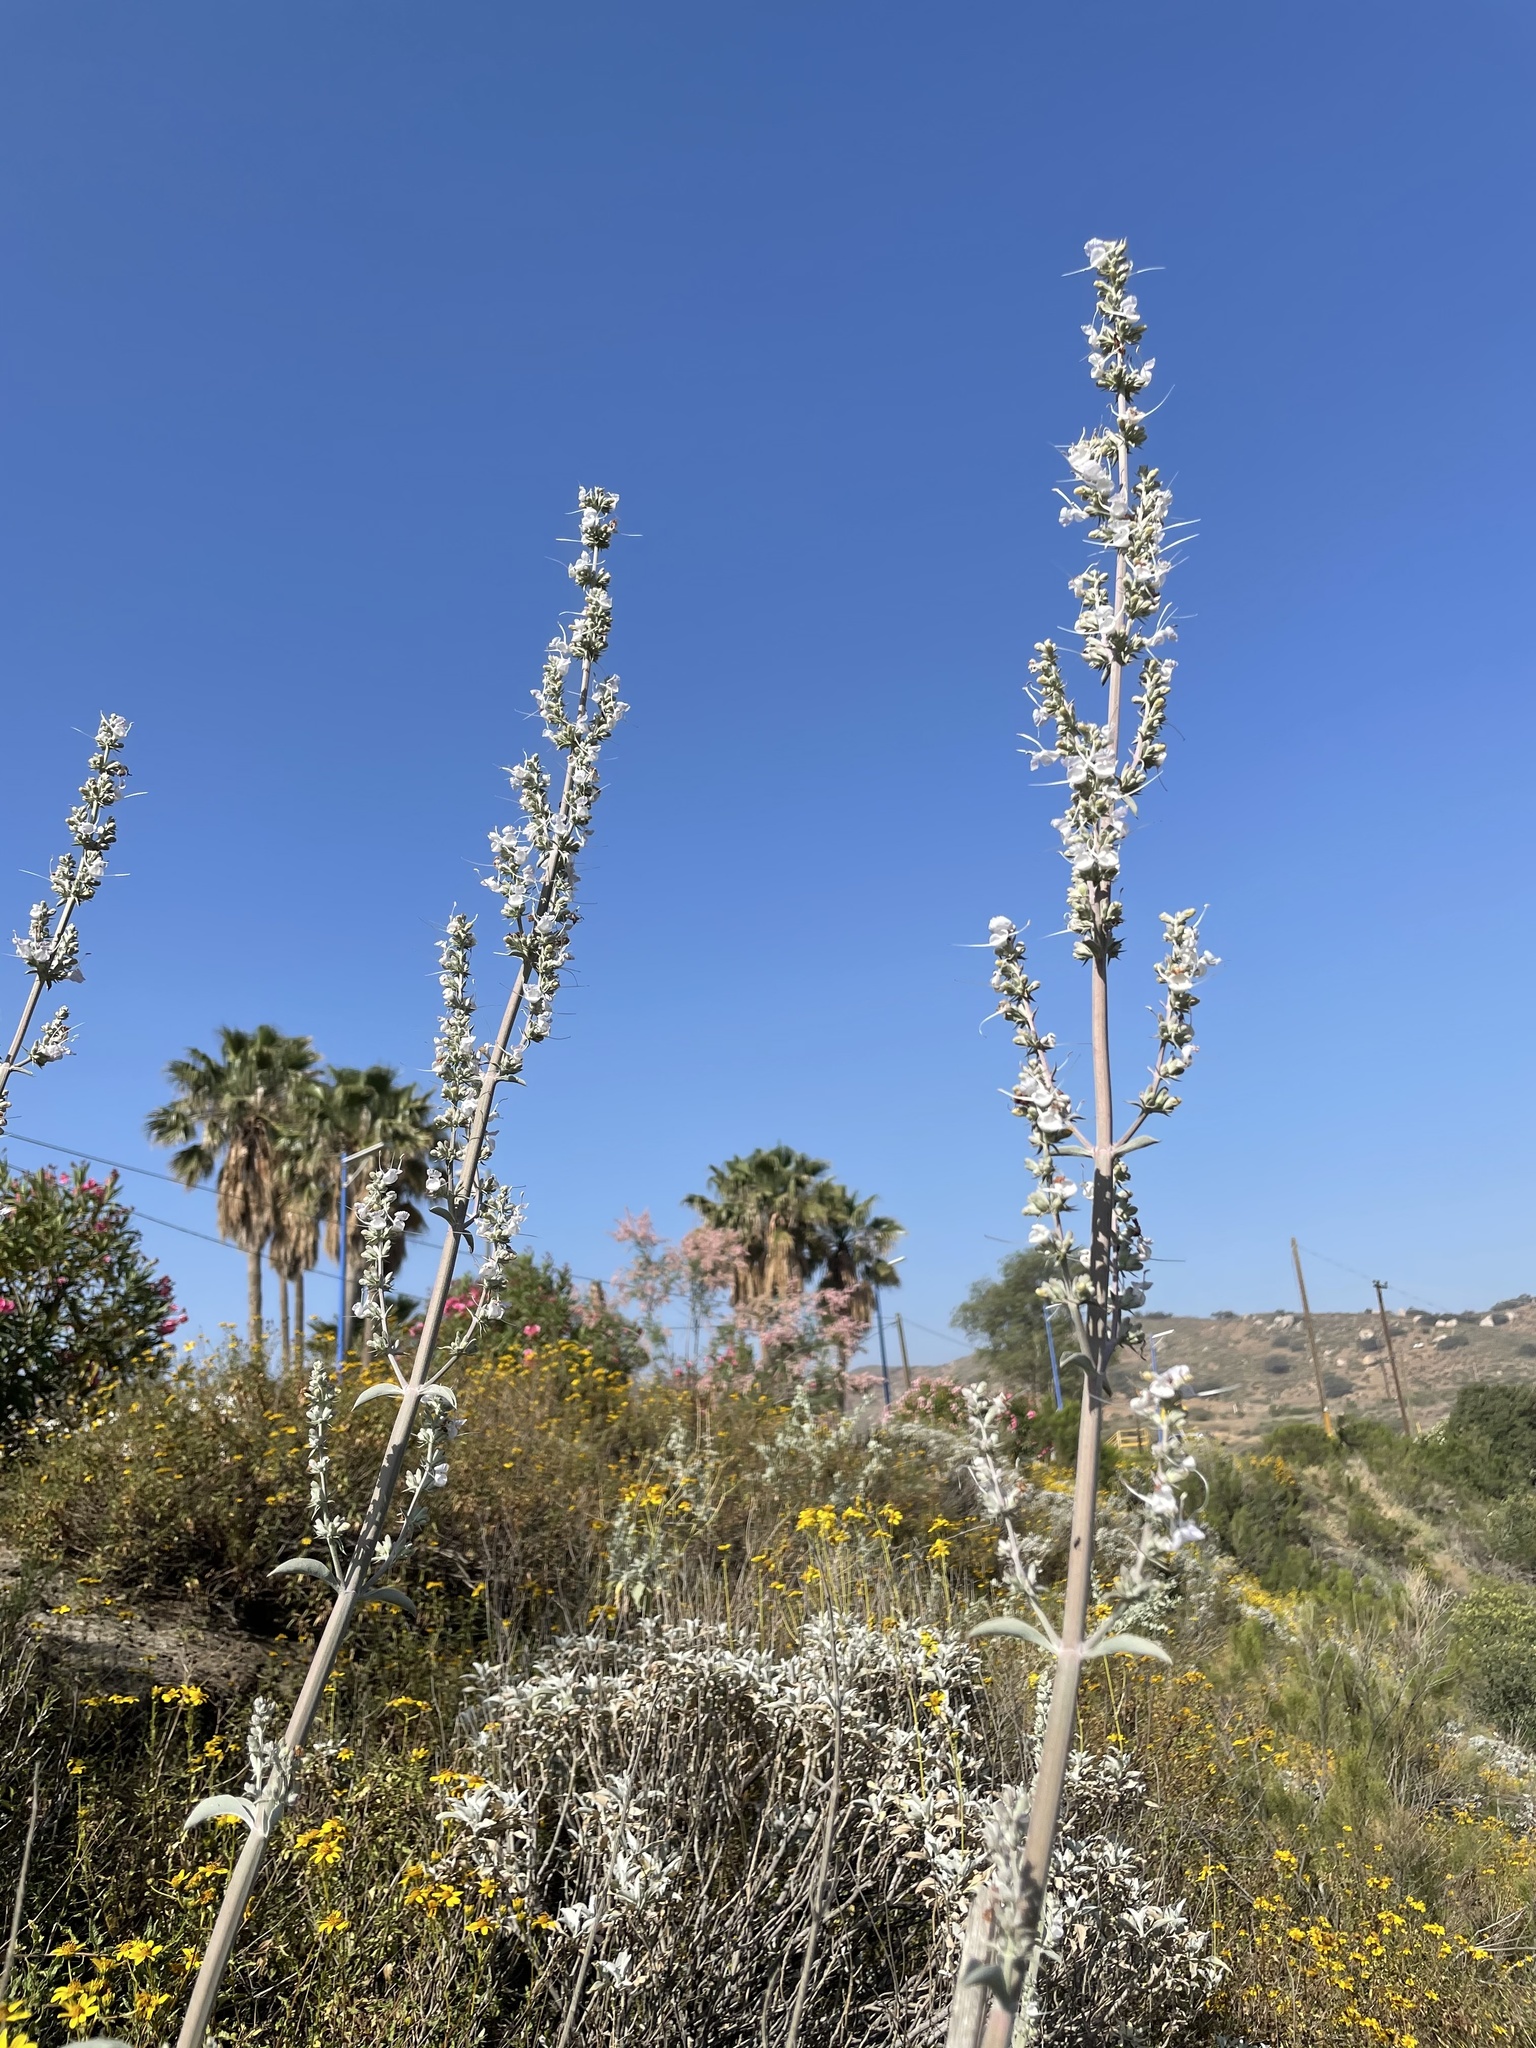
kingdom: Plantae
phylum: Tracheophyta
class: Magnoliopsida
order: Lamiales
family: Lamiaceae
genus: Salvia
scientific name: Salvia apiana
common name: White sage
